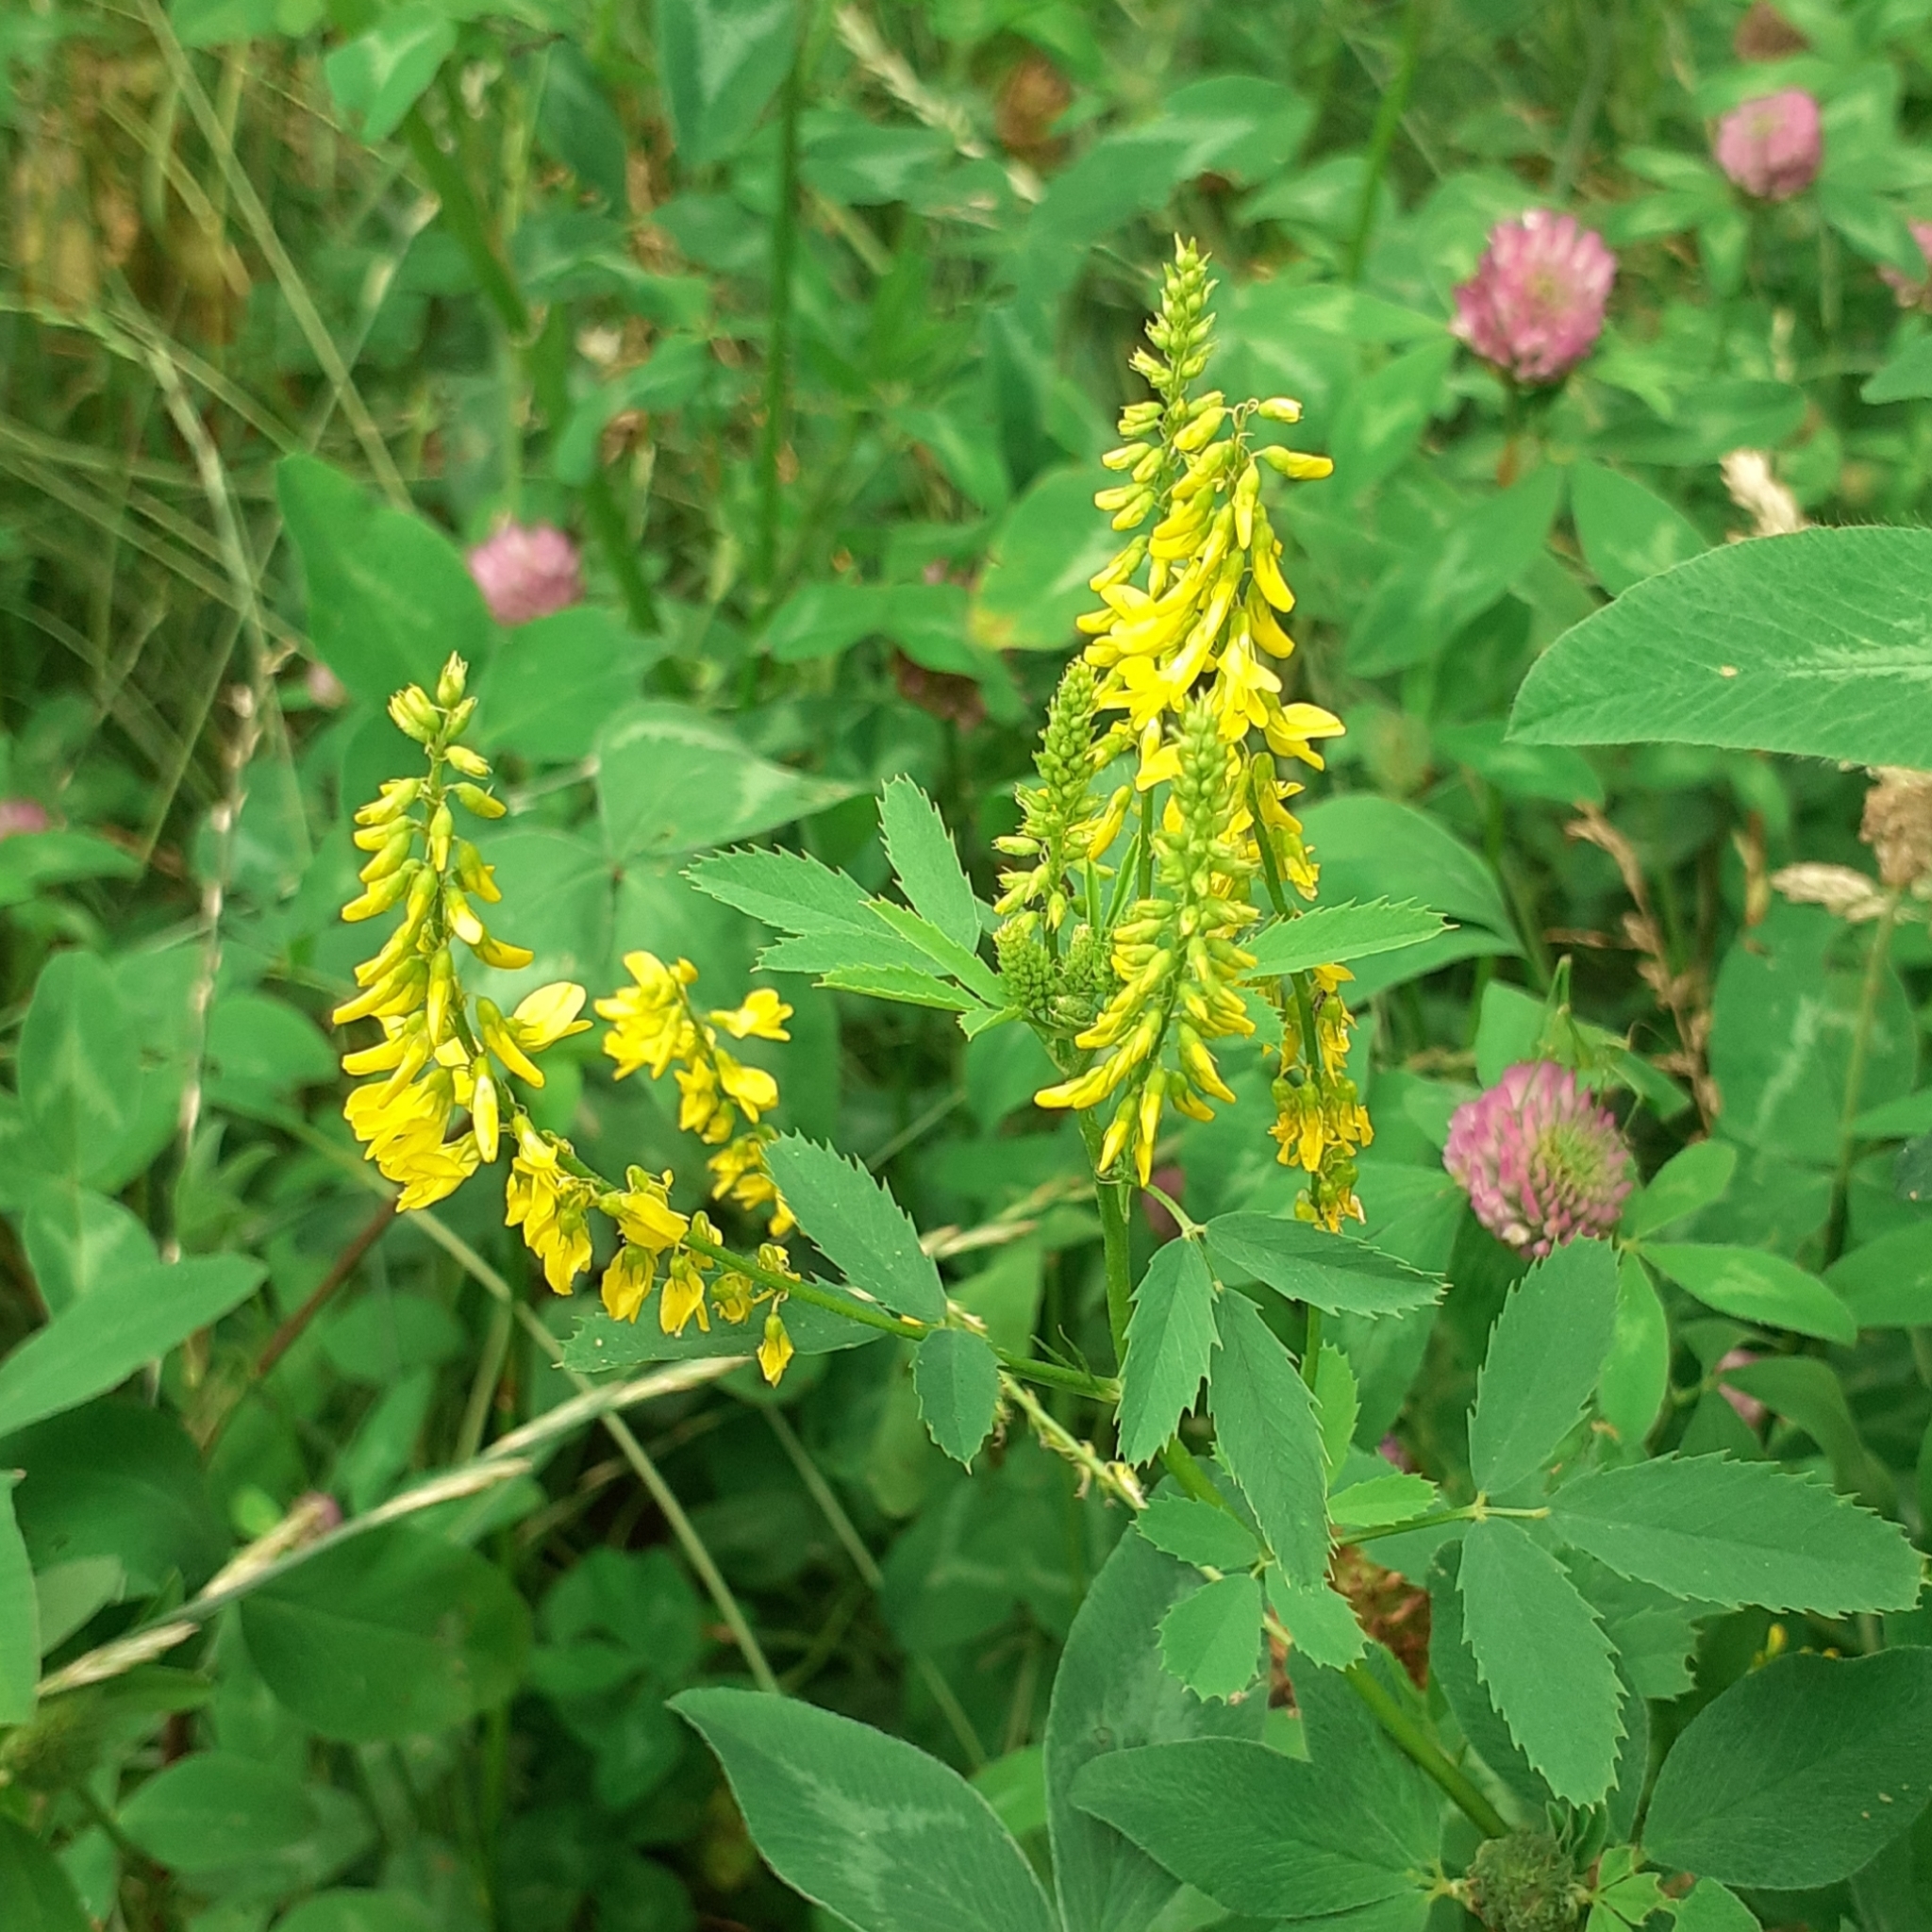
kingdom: Plantae
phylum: Tracheophyta
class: Magnoliopsida
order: Fabales
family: Fabaceae
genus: Melilotus
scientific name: Melilotus officinalis
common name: Sweetclover
